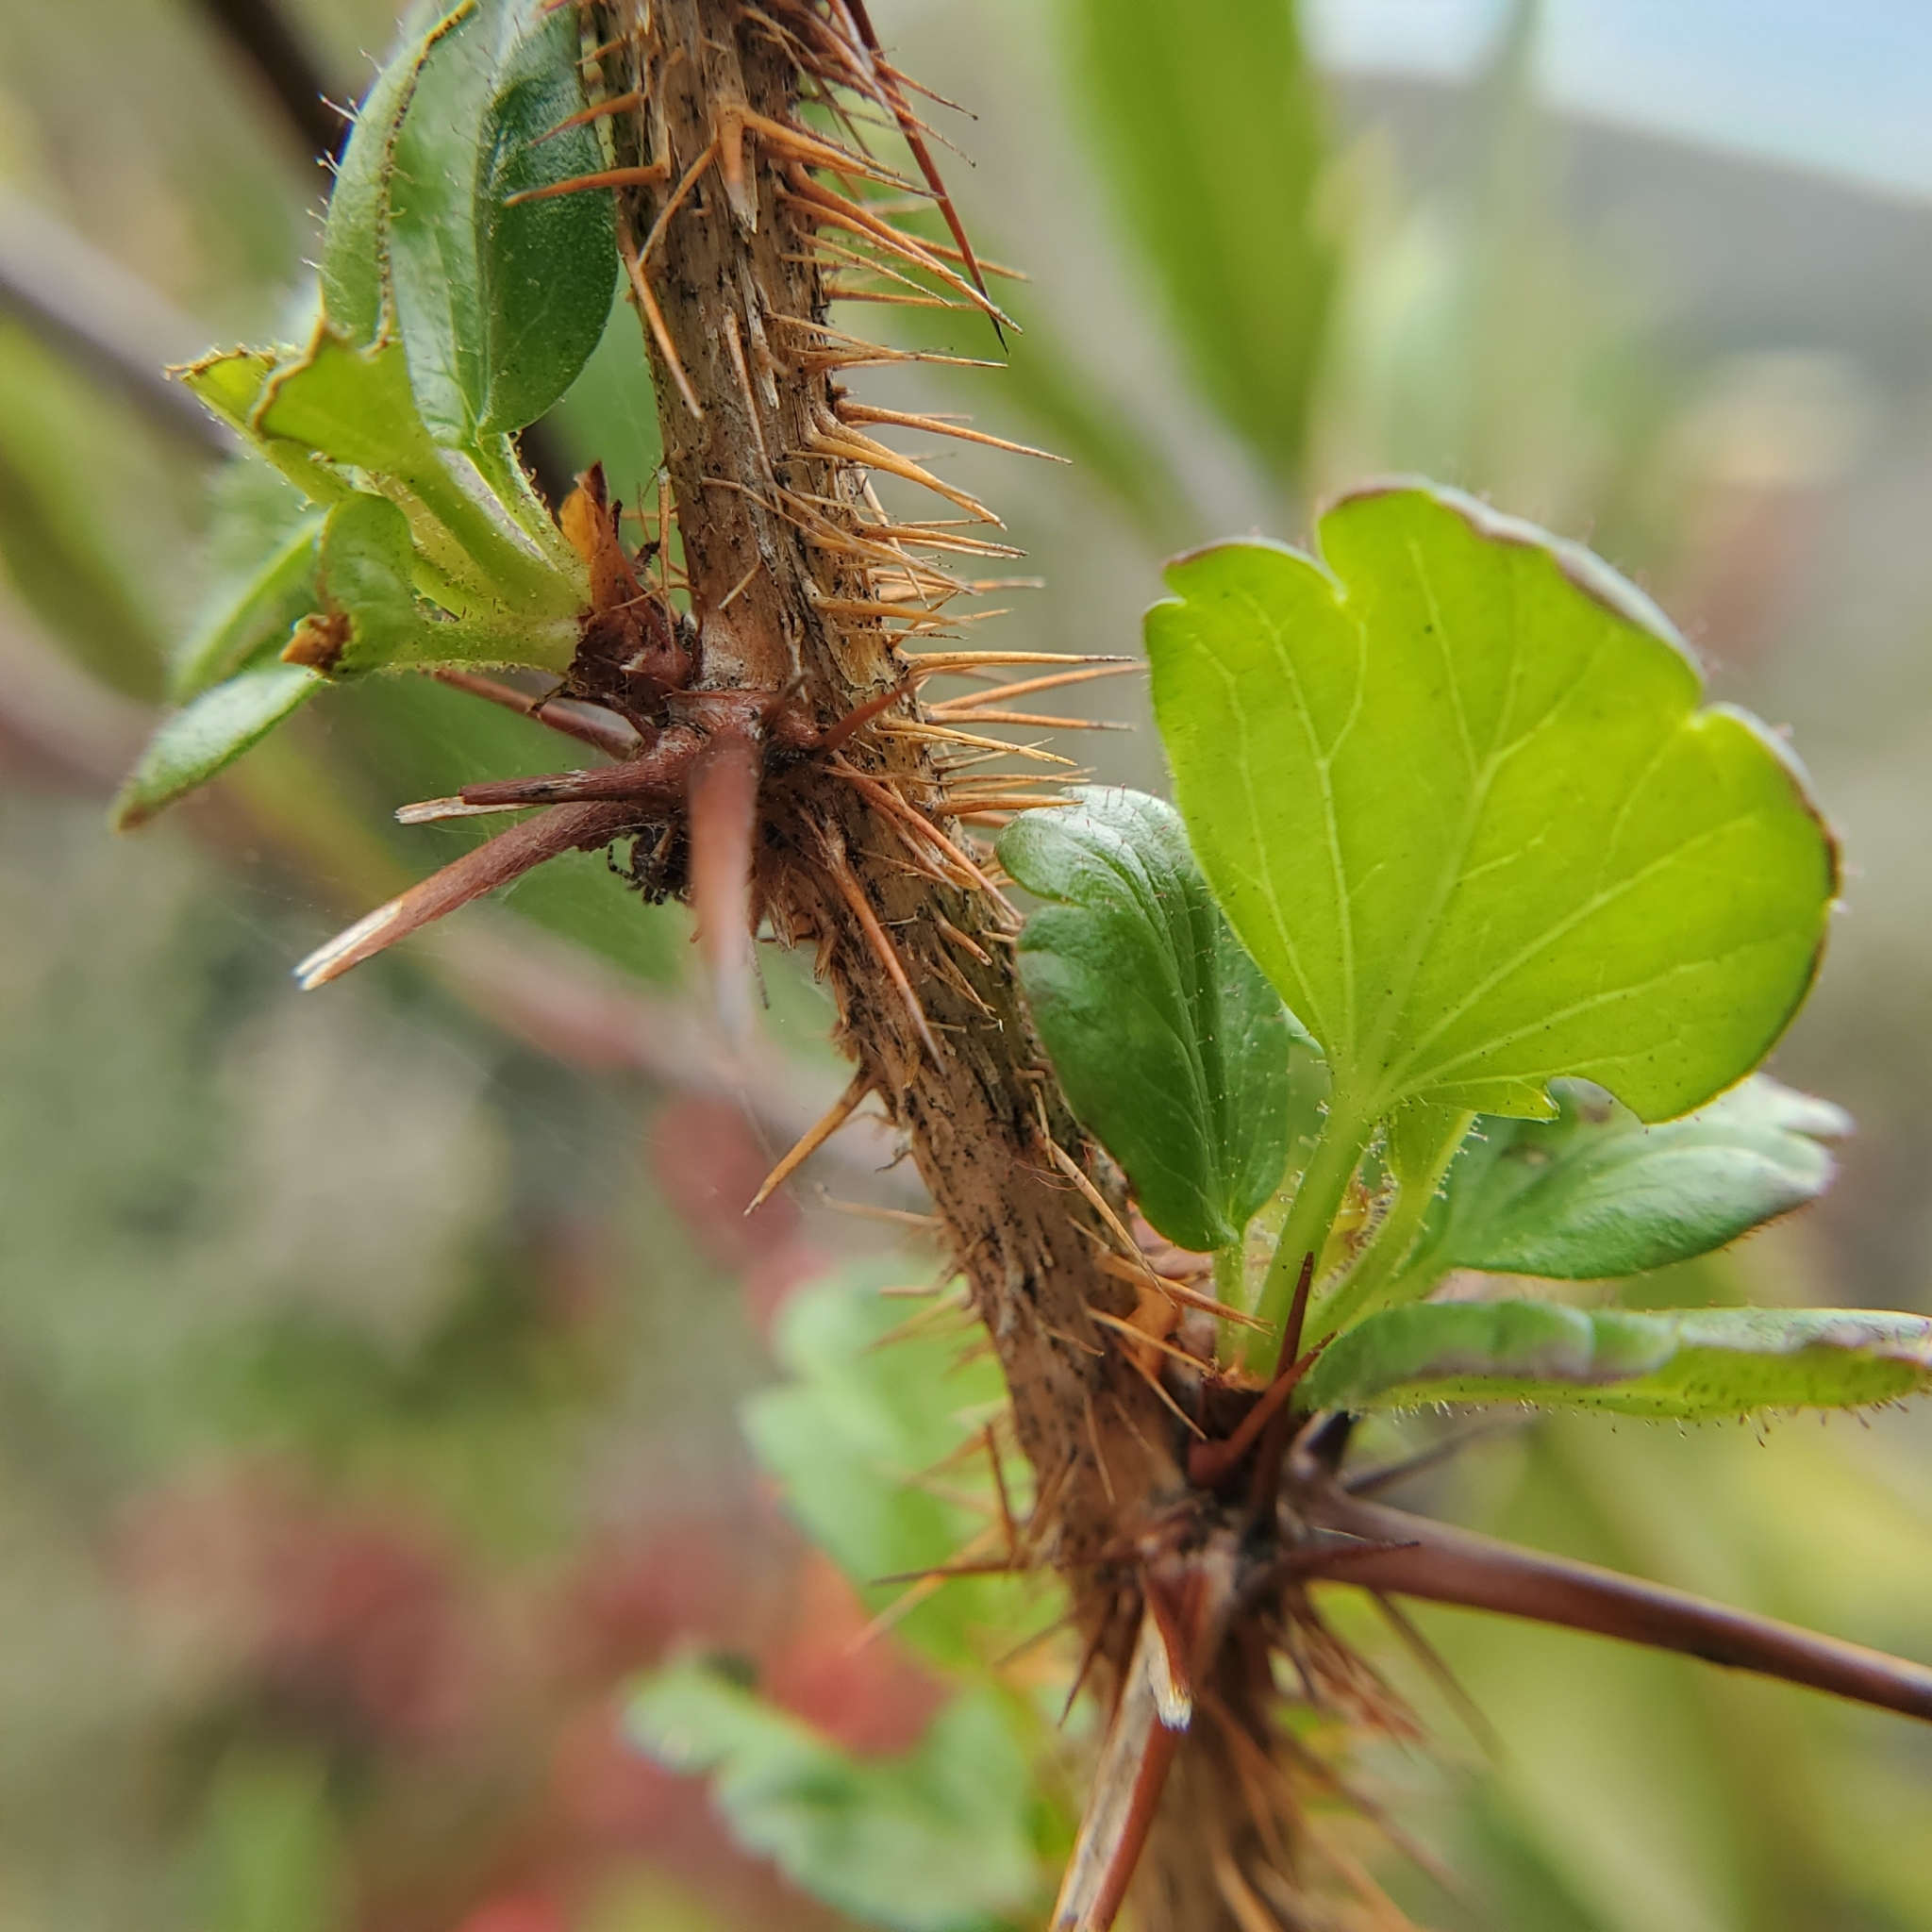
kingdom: Plantae
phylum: Tracheophyta
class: Magnoliopsida
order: Saxifragales
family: Grossulariaceae
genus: Ribes
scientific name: Ribes speciosum
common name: Fuchsia-flower gooseberry
